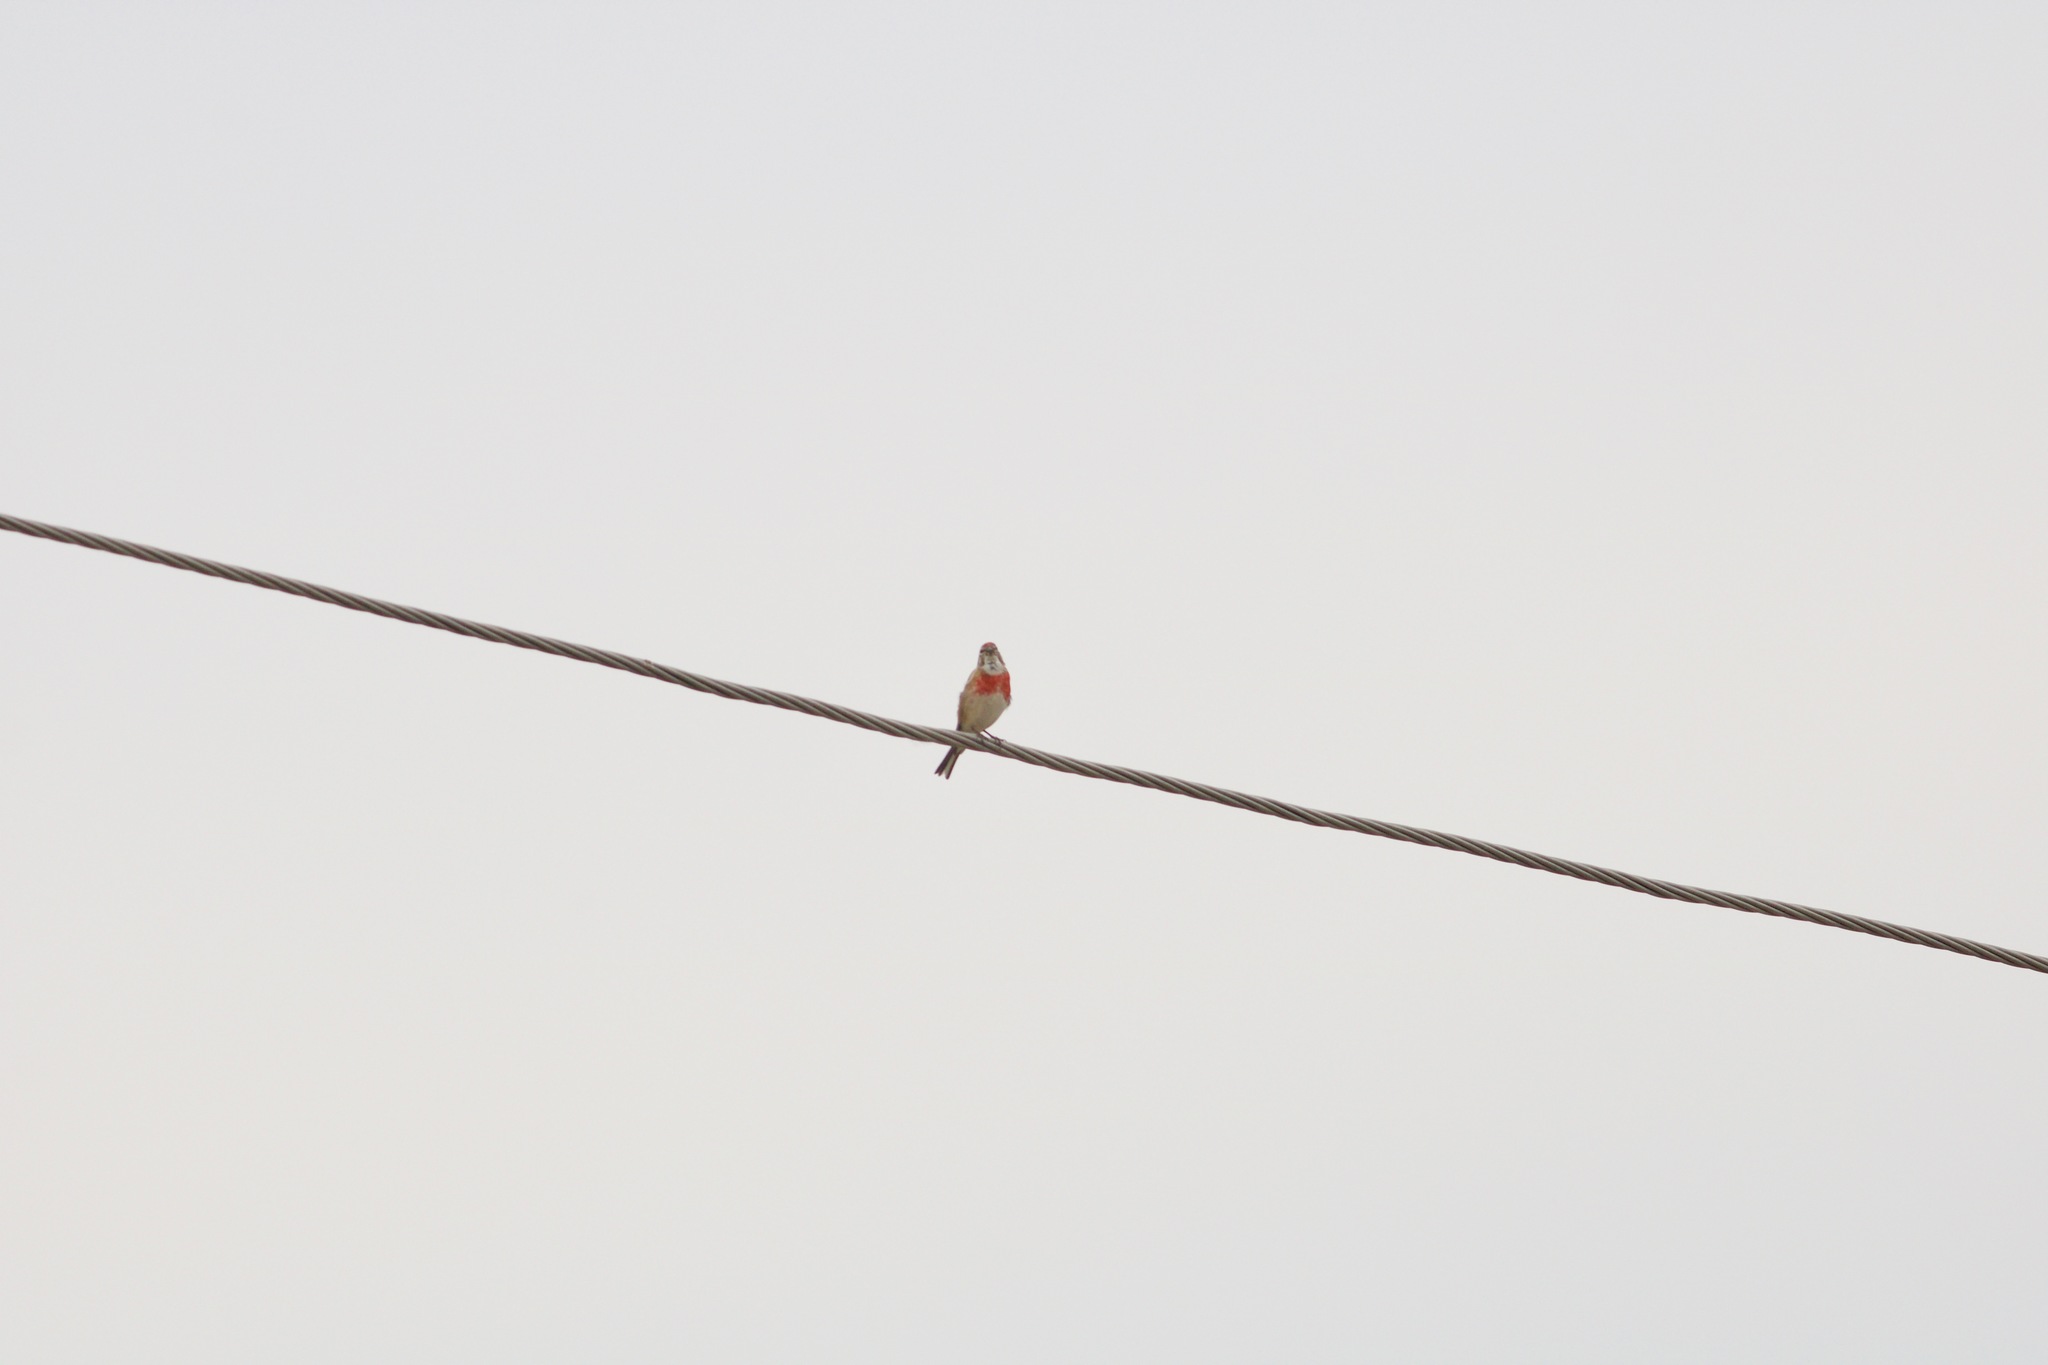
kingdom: Animalia
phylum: Chordata
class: Aves
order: Passeriformes
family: Fringillidae
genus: Linaria
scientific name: Linaria cannabina
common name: Common linnet
